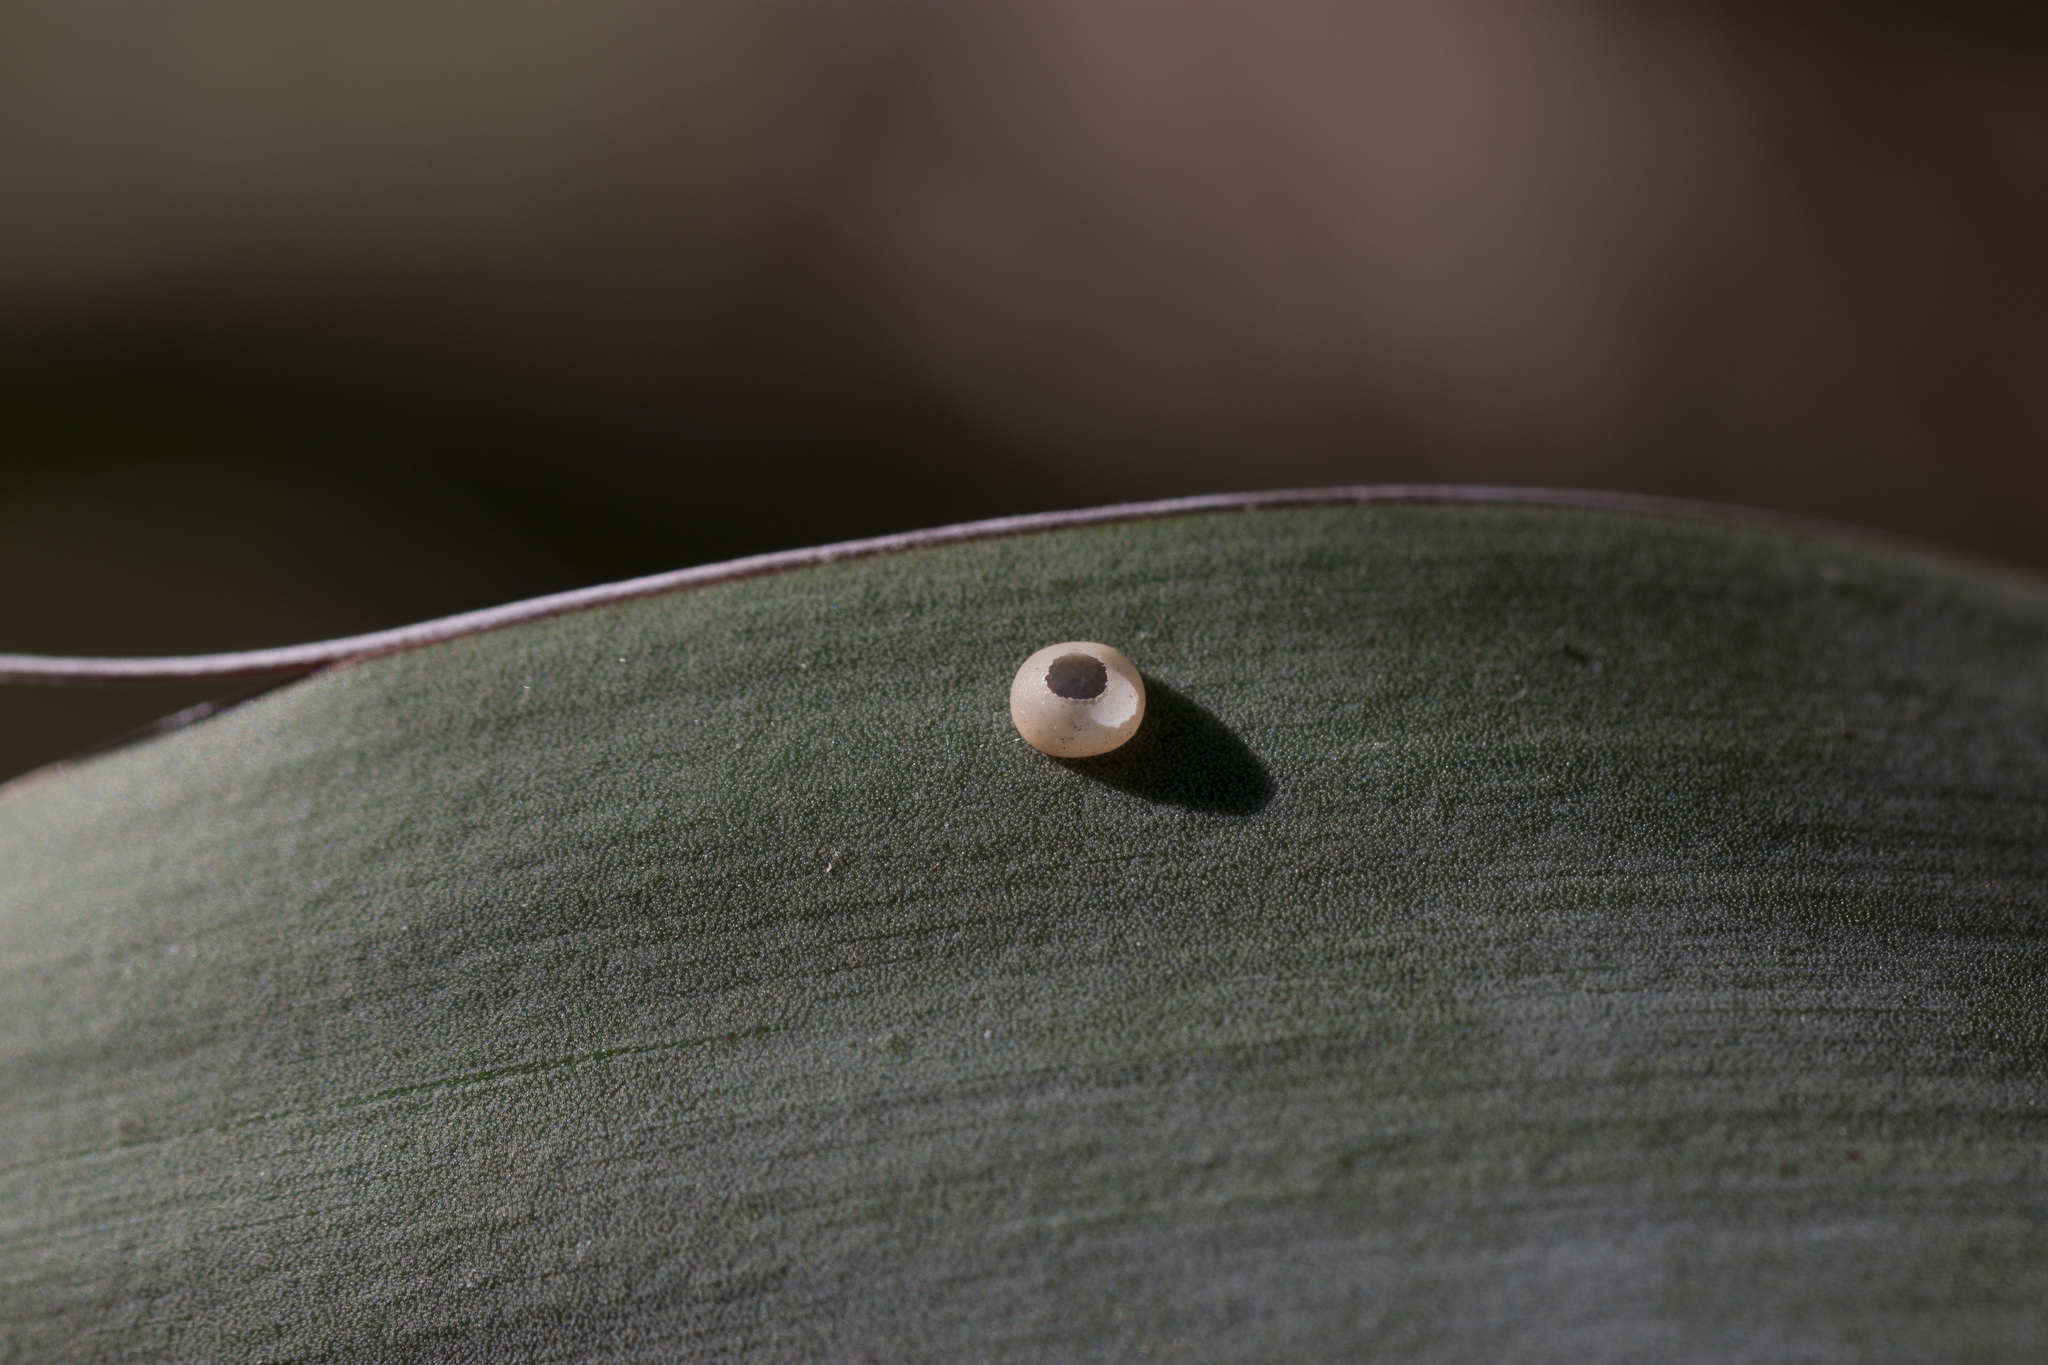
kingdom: Animalia
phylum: Arthropoda
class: Insecta
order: Lepidoptera
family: Hesperiidae
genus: Megathymus
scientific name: Megathymus yuccae
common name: Yucca giant-skipper
